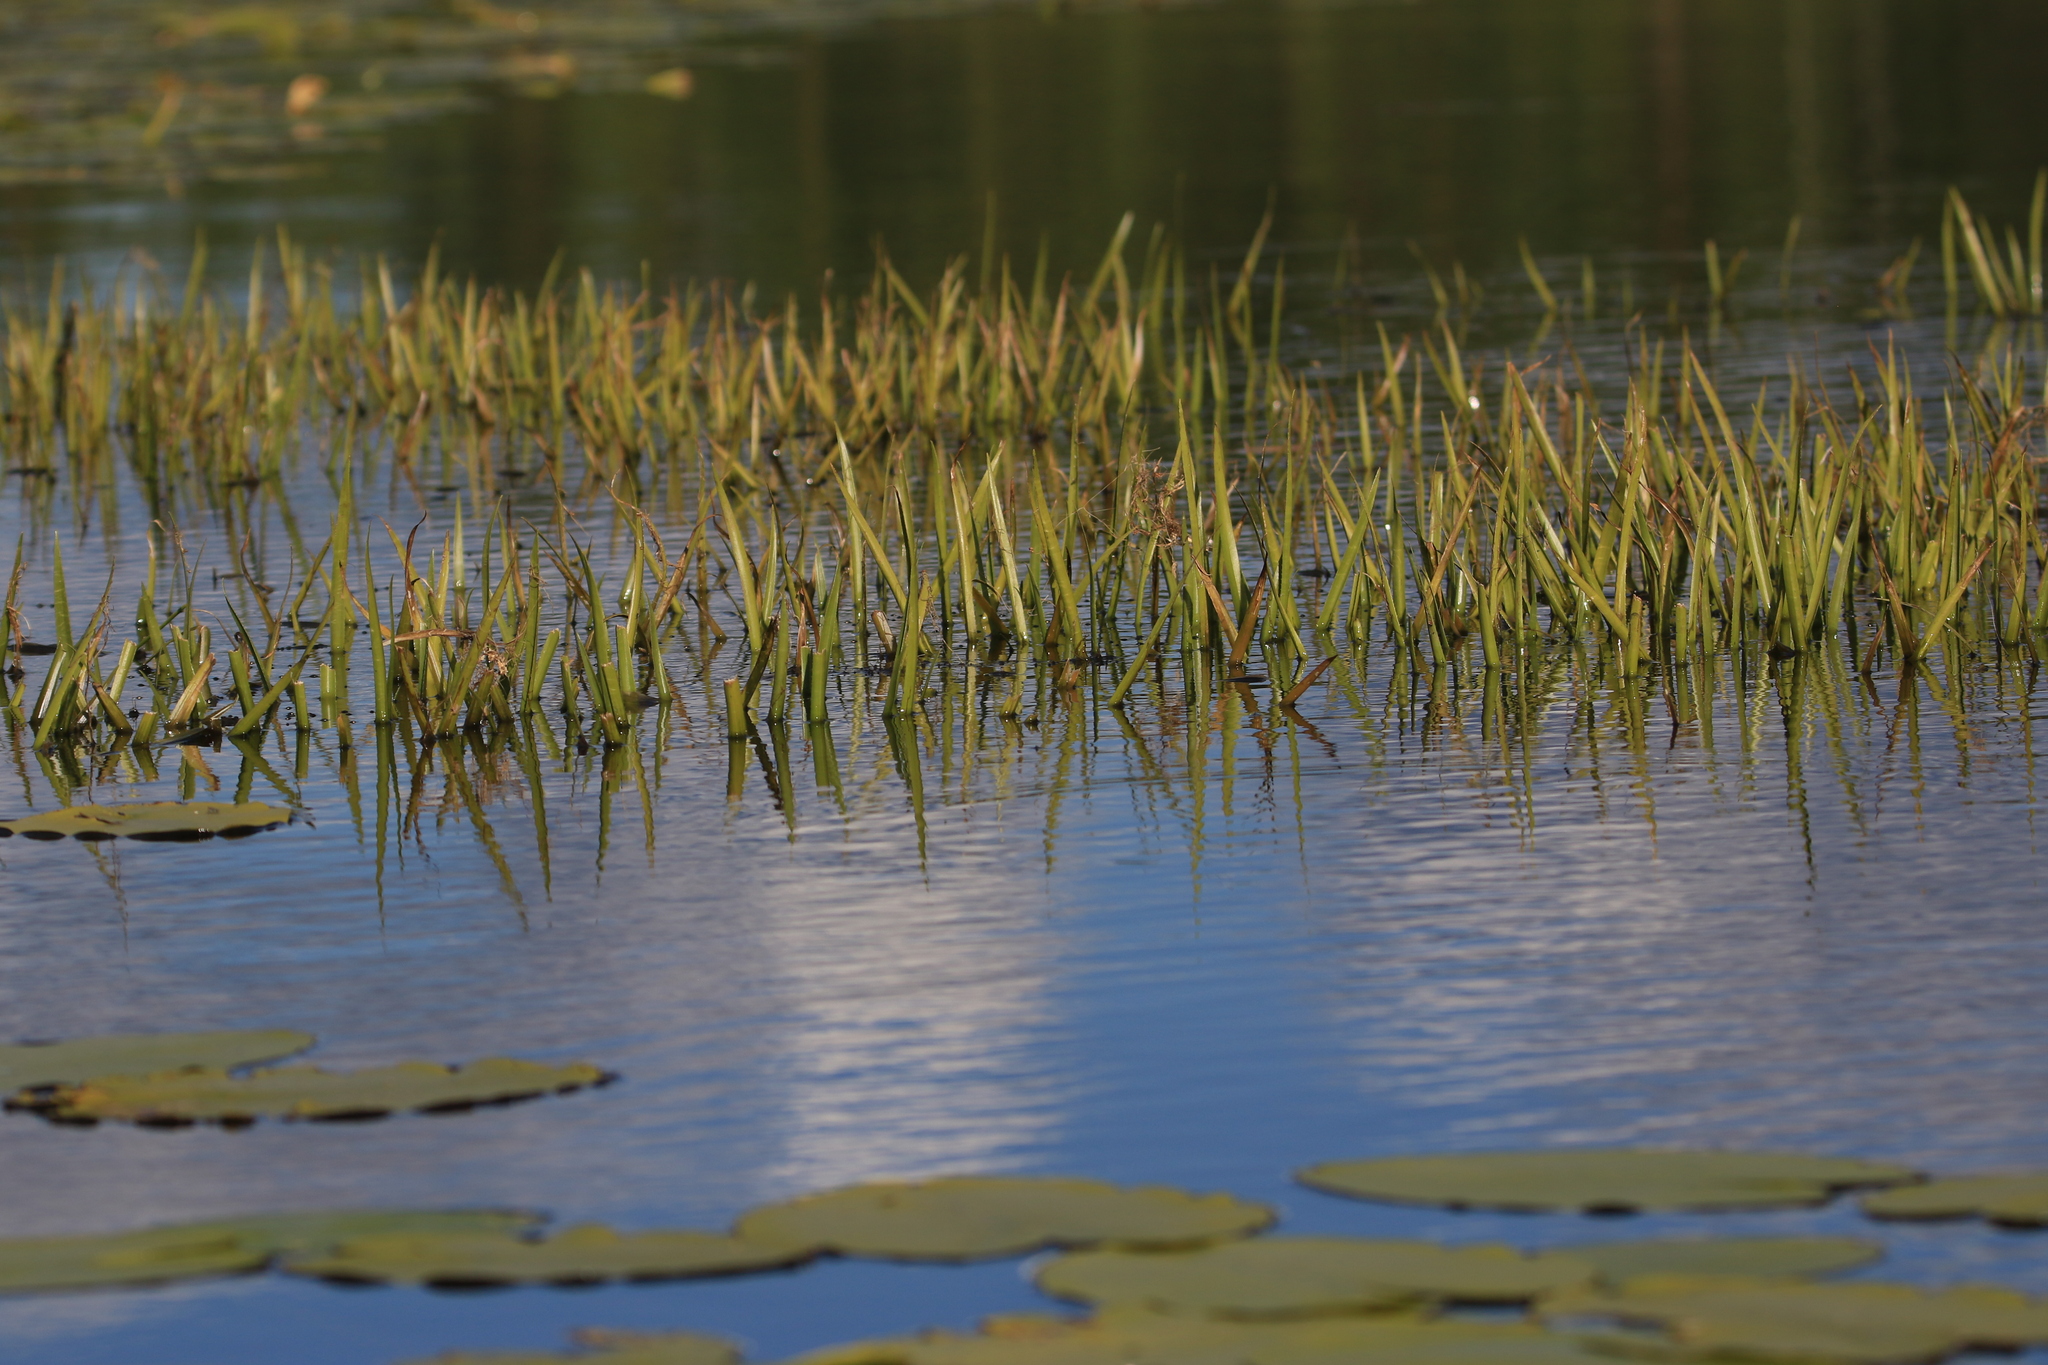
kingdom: Plantae
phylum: Tracheophyta
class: Liliopsida
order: Alismatales
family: Hydrocharitaceae
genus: Stratiotes
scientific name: Stratiotes aloides
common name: Water-soldier
